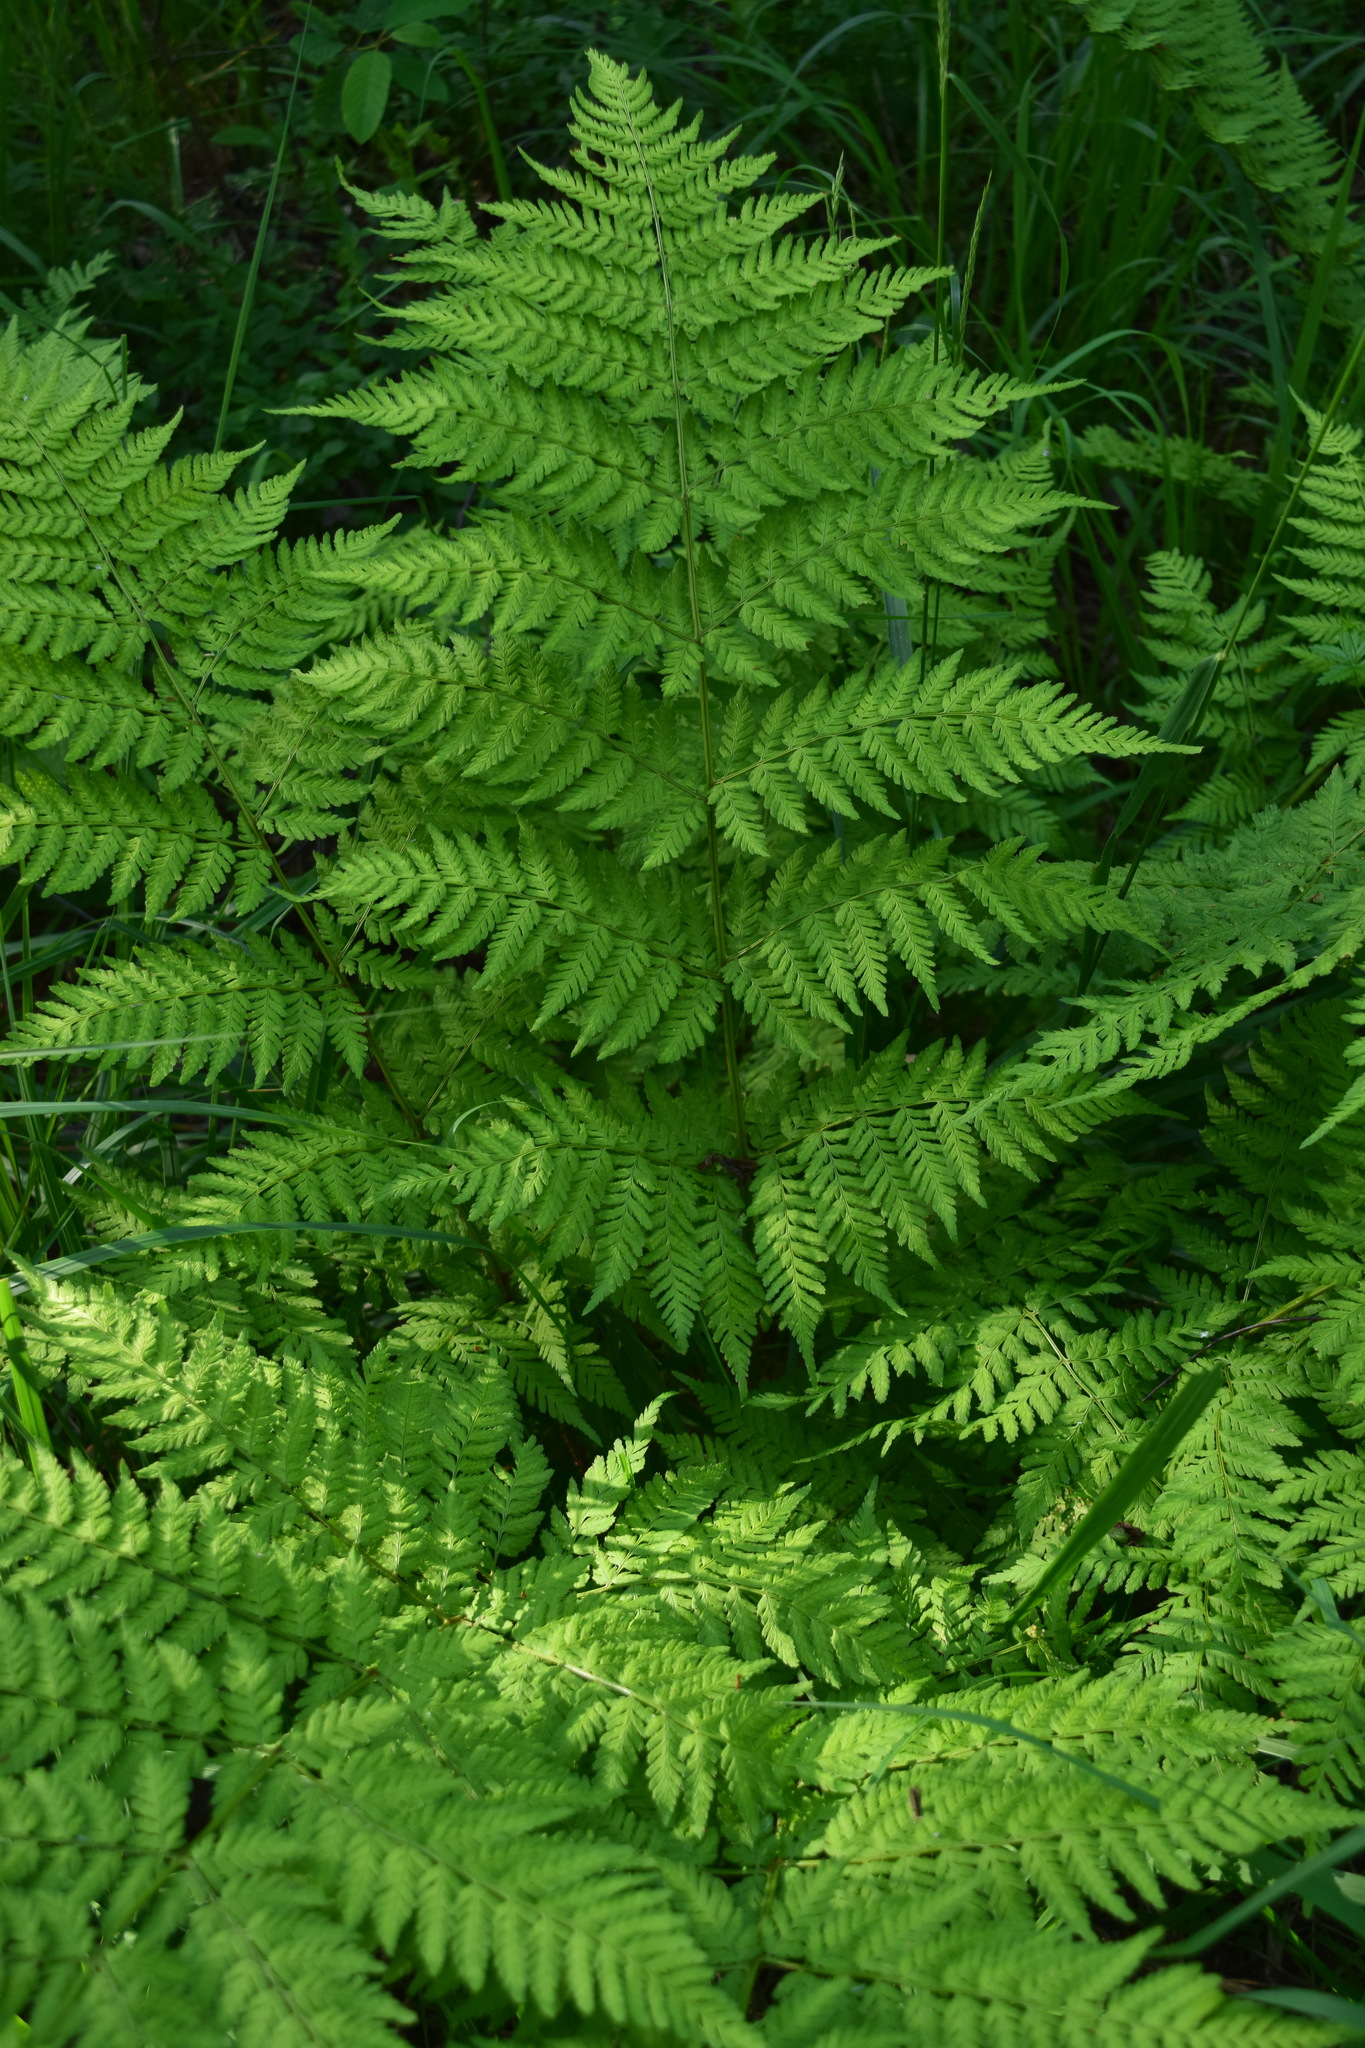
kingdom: Plantae
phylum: Tracheophyta
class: Polypodiopsida
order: Polypodiales
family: Dryopteridaceae
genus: Dryopteris
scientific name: Dryopteris expansa
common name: Northern buckler fern
